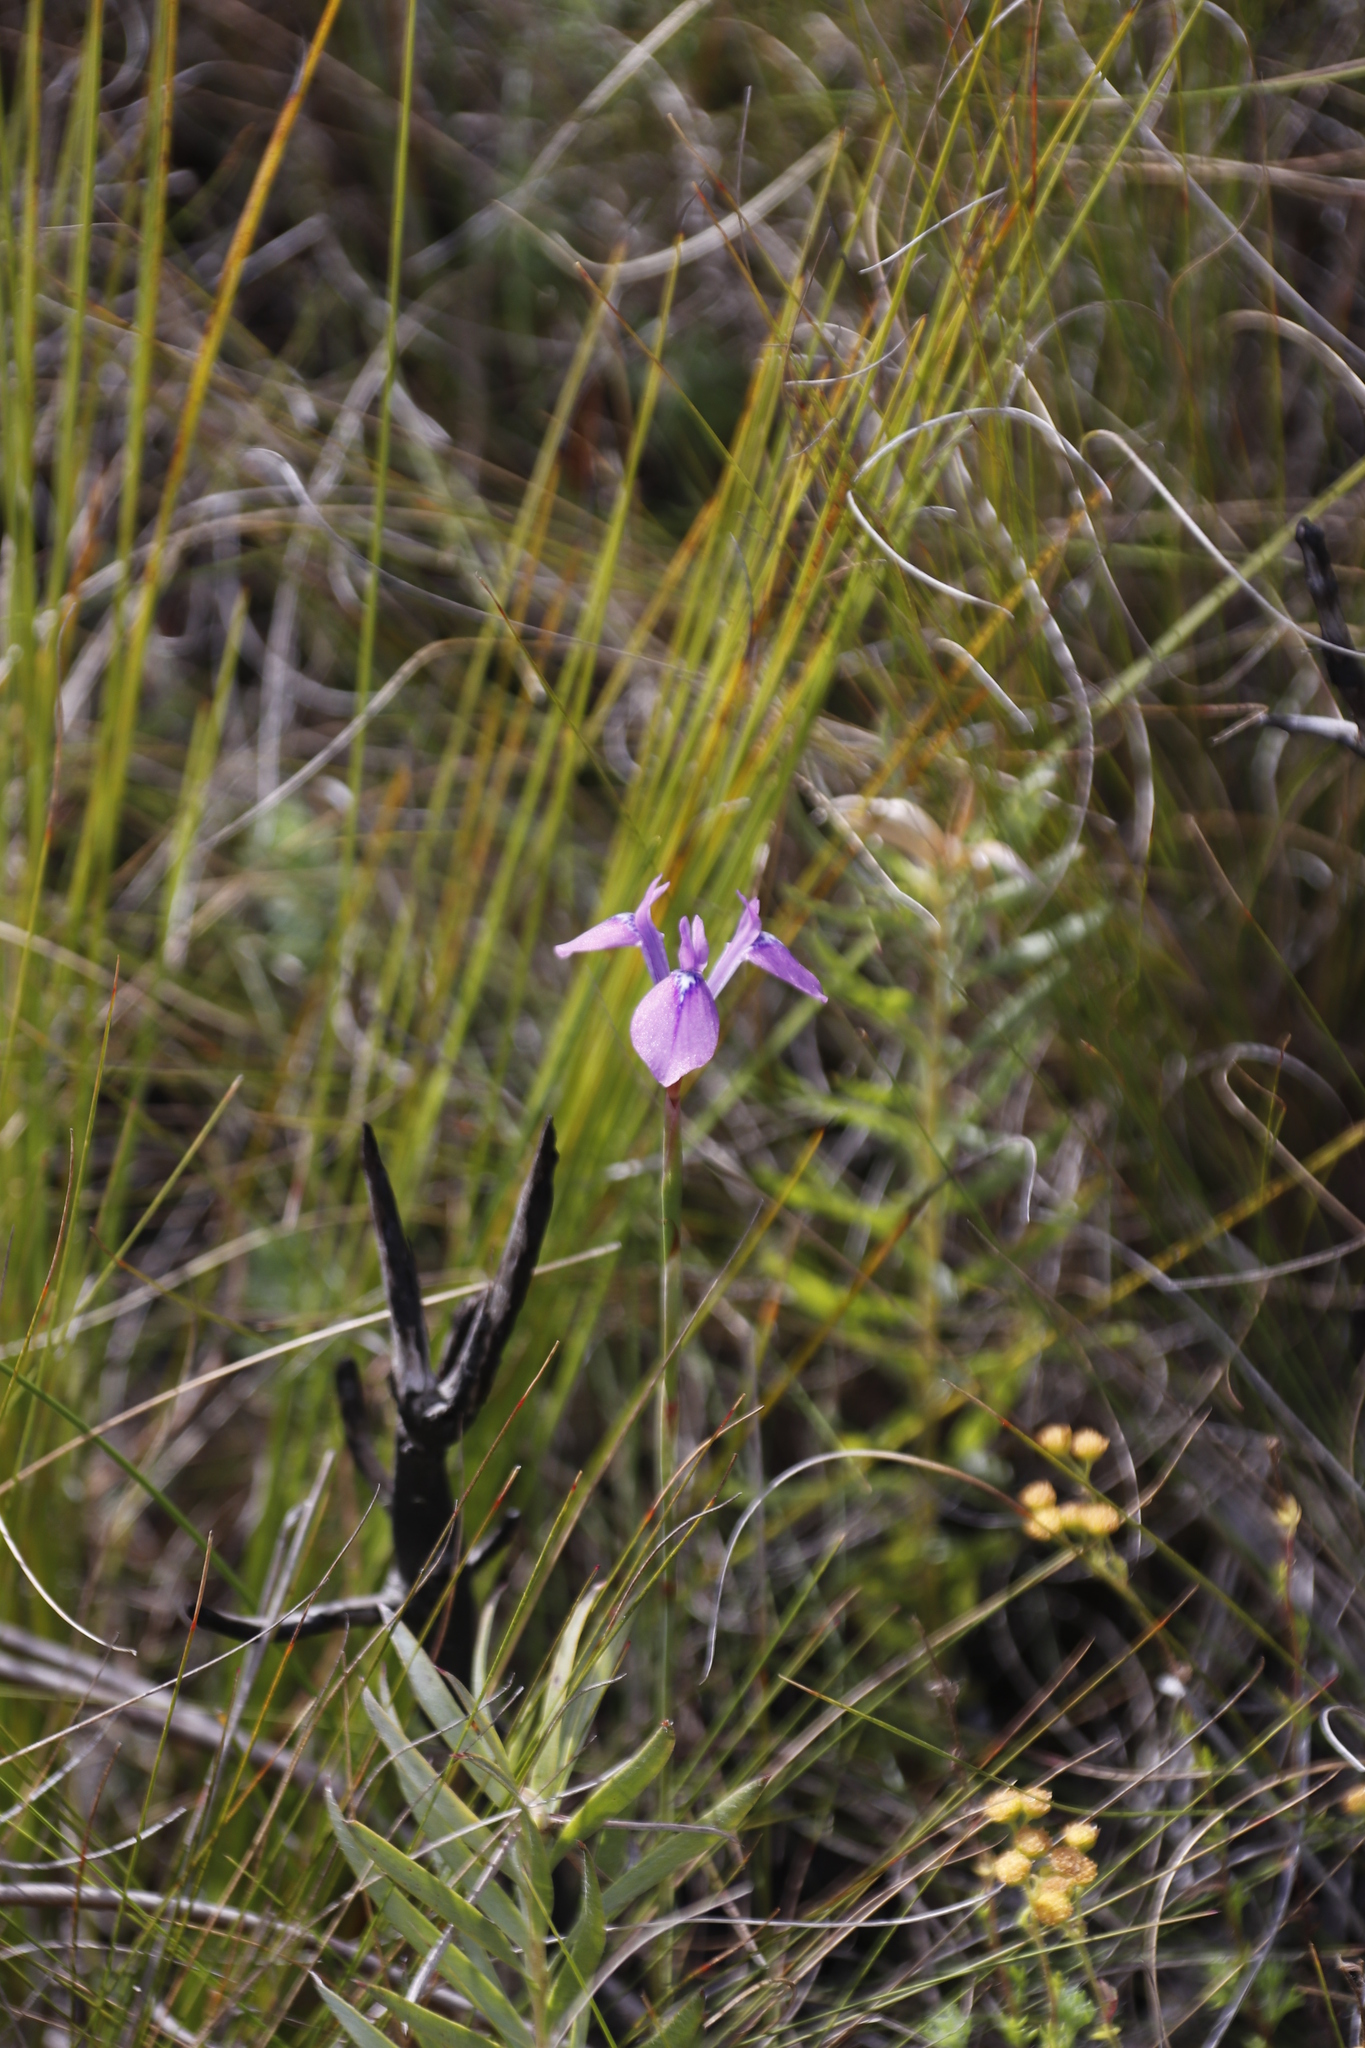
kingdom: Plantae
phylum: Tracheophyta
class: Liliopsida
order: Asparagales
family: Iridaceae
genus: Moraea
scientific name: Moraea tripetala
